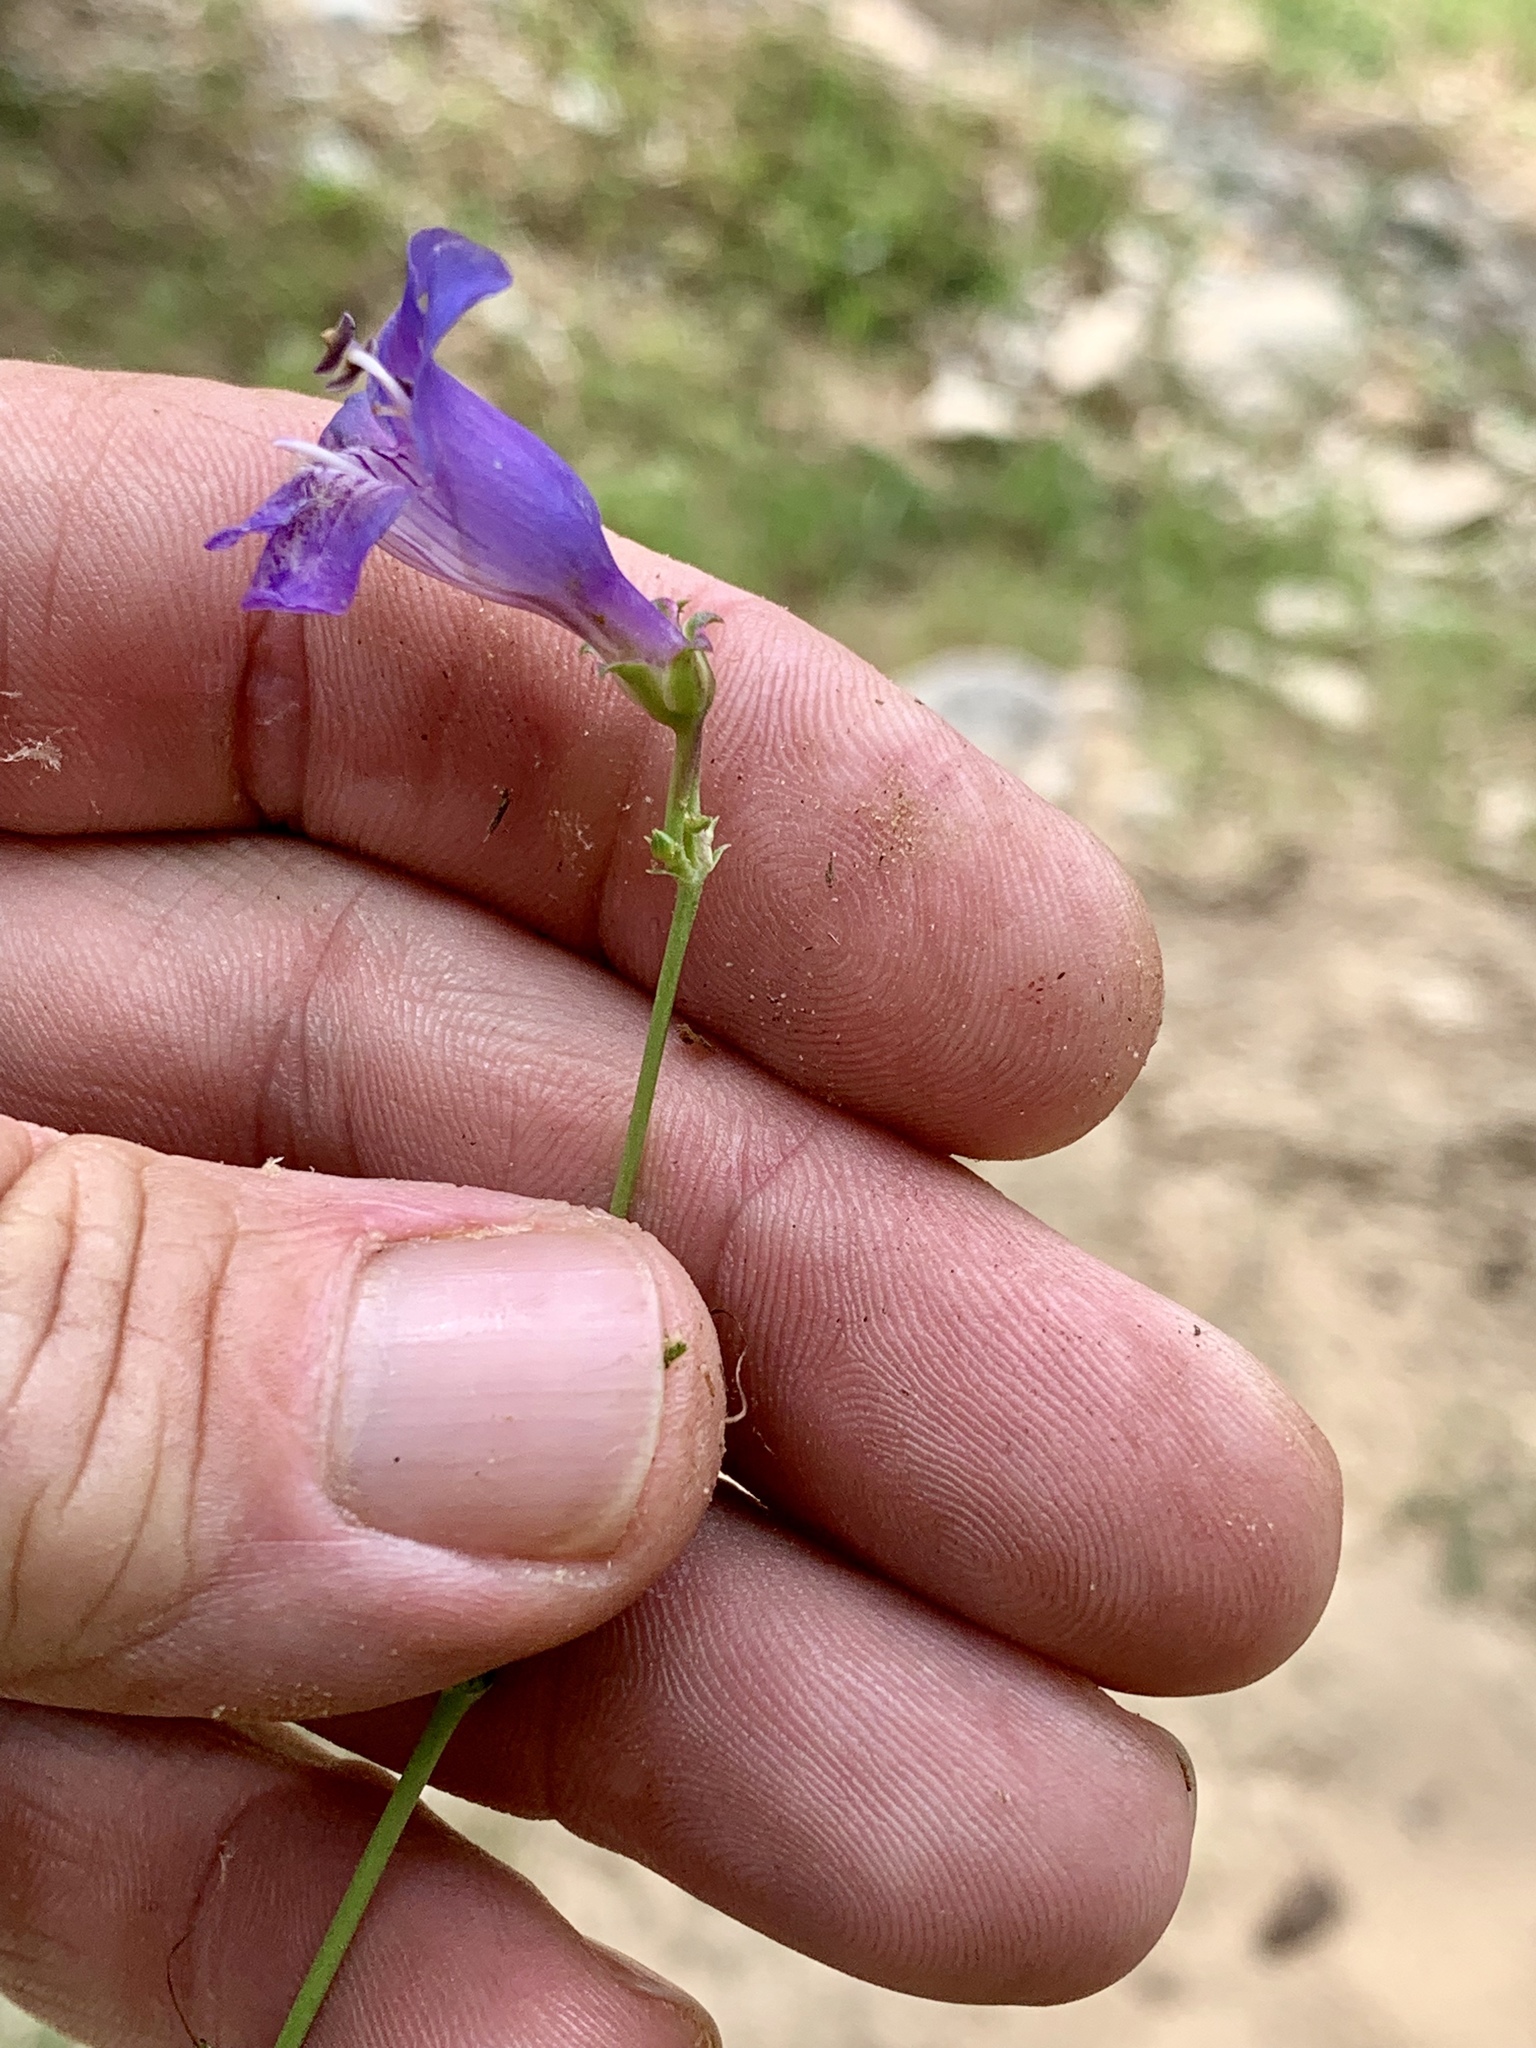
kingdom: Plantae
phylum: Tracheophyta
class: Magnoliopsida
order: Lamiales
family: Plantaginaceae
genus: Penstemon
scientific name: Penstemon neomexicanus
